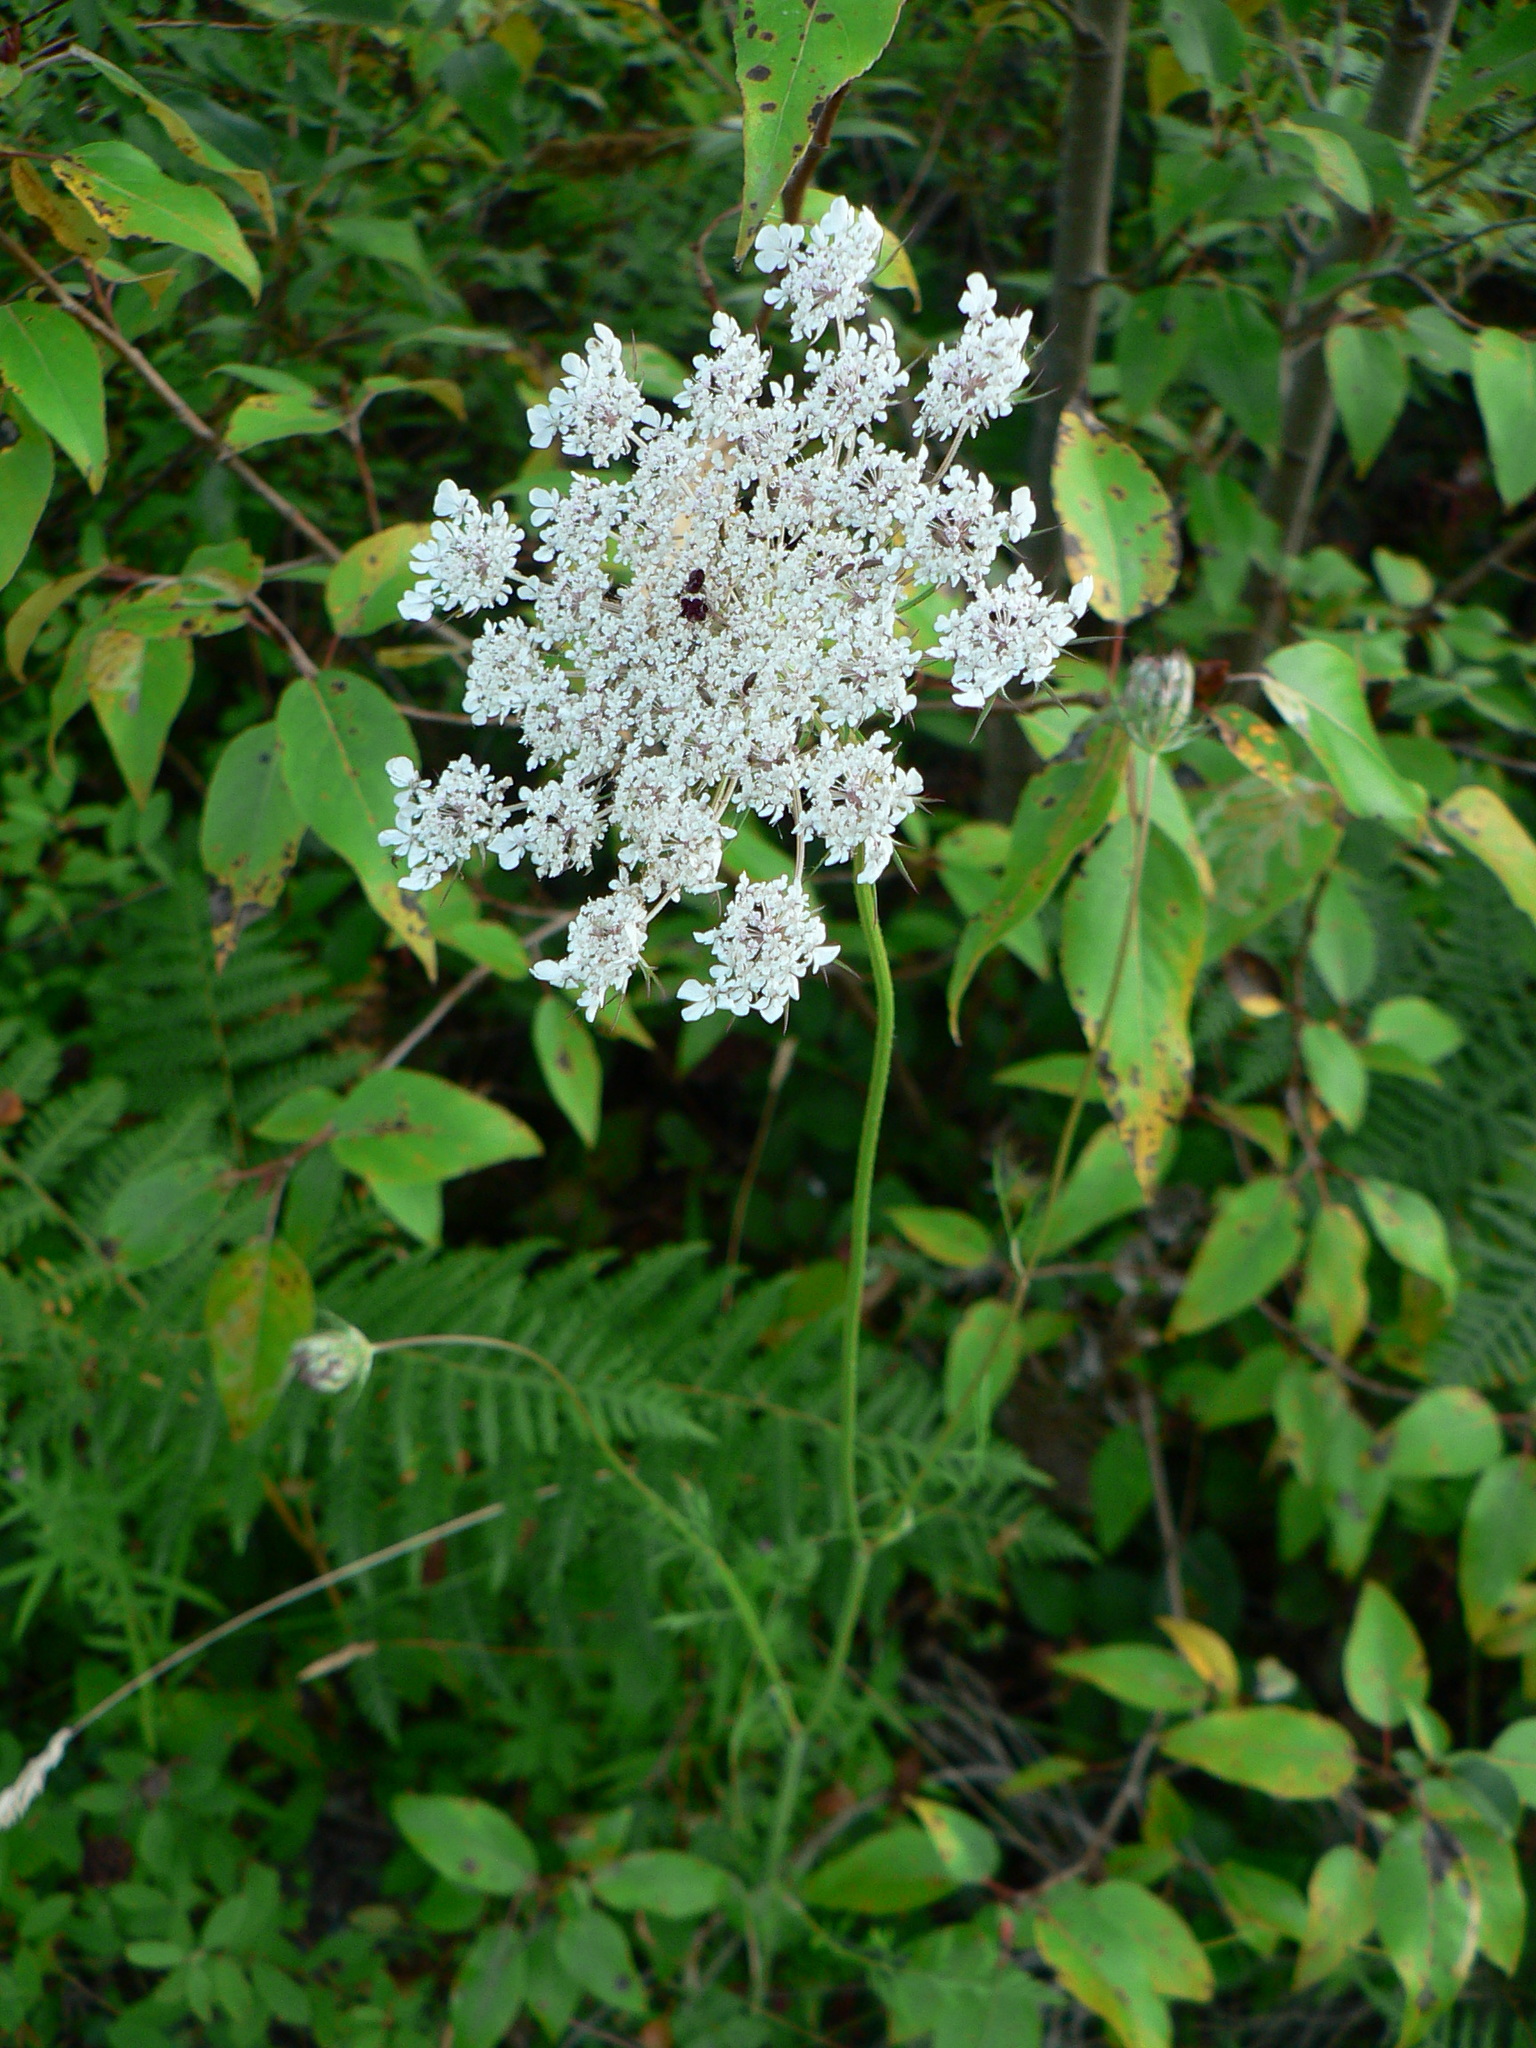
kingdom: Plantae
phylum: Tracheophyta
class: Magnoliopsida
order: Apiales
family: Apiaceae
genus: Daucus
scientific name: Daucus carota
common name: Wild carrot
